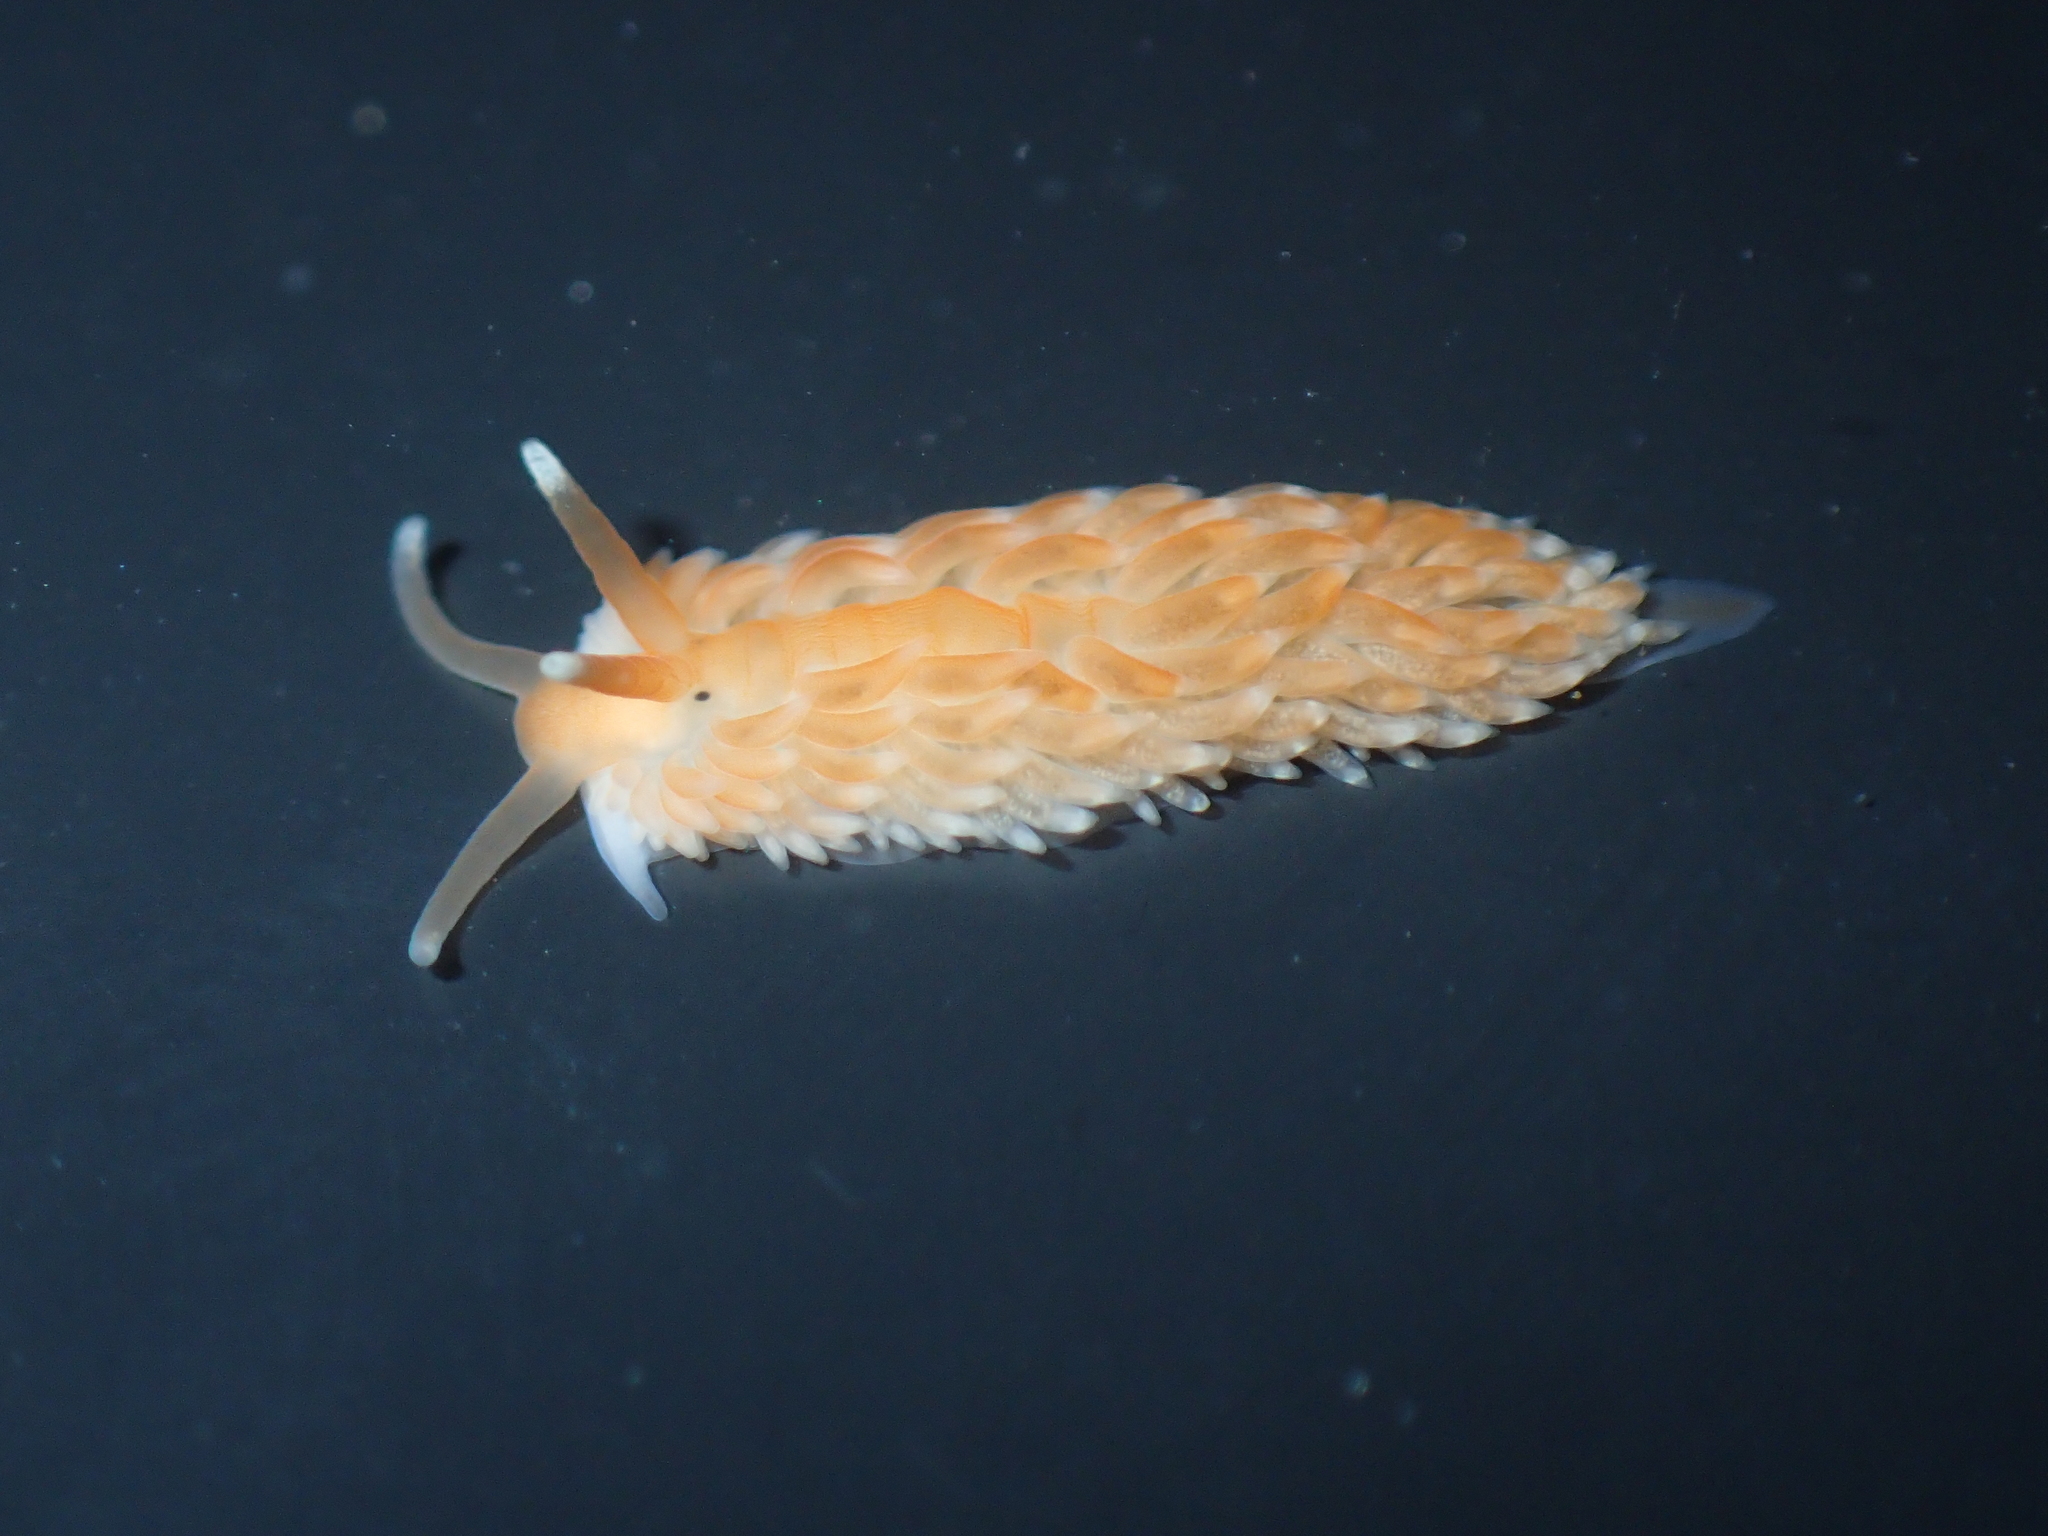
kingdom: Animalia
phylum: Mollusca
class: Gastropoda
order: Nudibranchia
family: Aeolidiidae
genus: Aeolidiella
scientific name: Aeolidiella sanguinea
